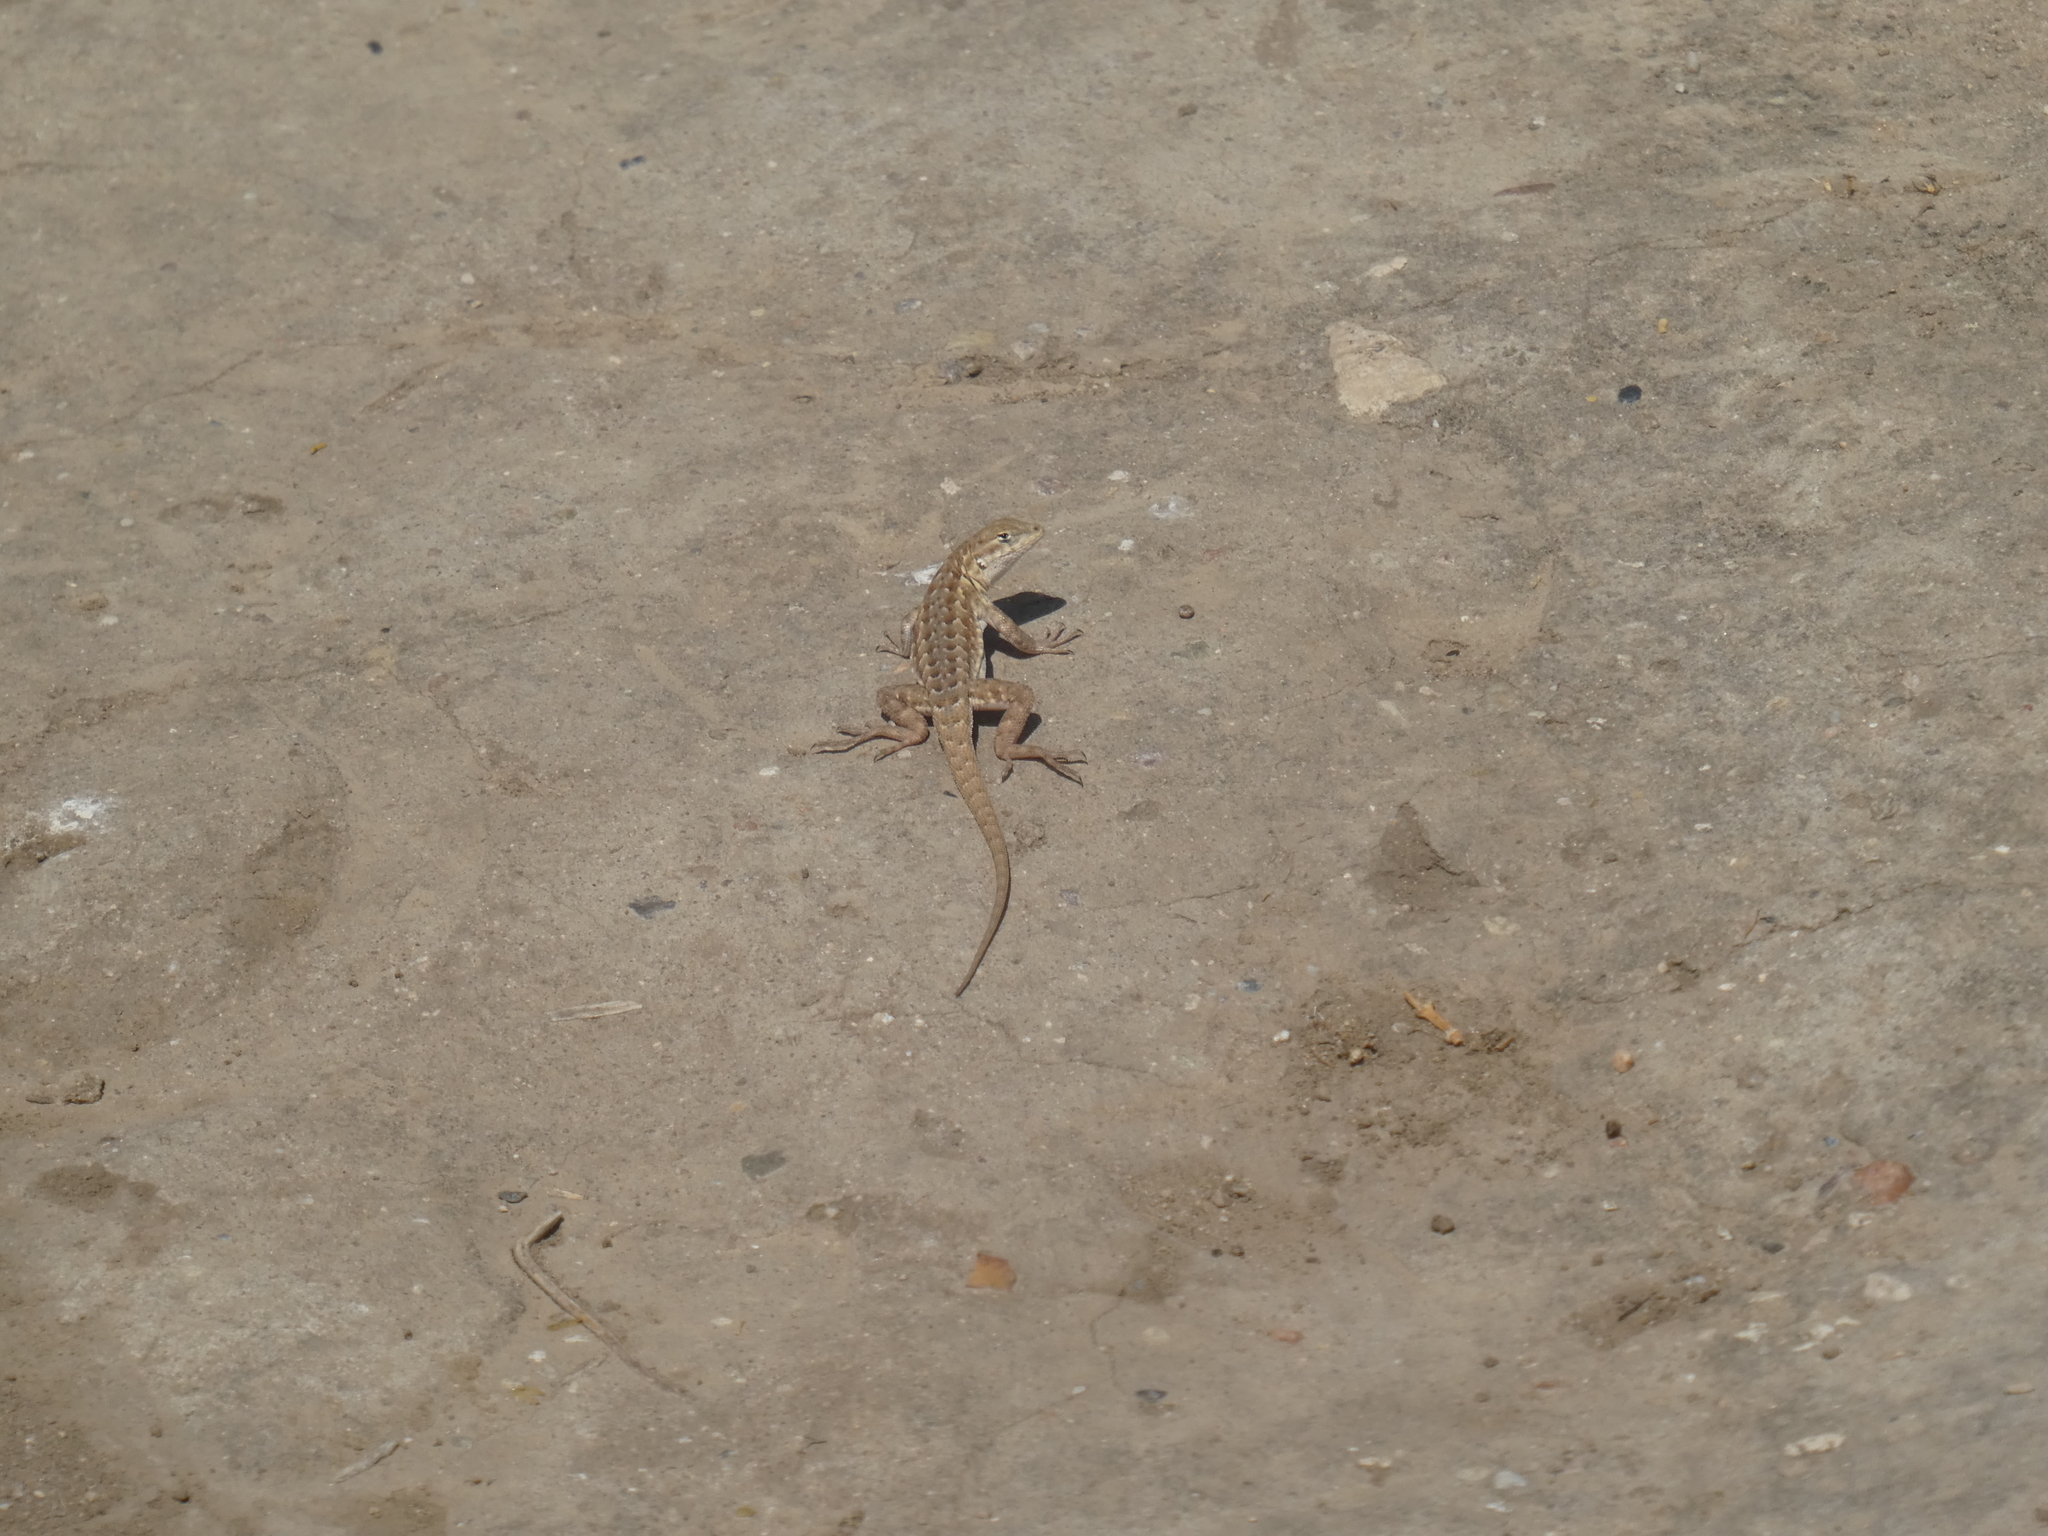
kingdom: Animalia
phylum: Chordata
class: Squamata
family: Phrynosomatidae
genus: Uta
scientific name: Uta stansburiana
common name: Side-blotched lizard
